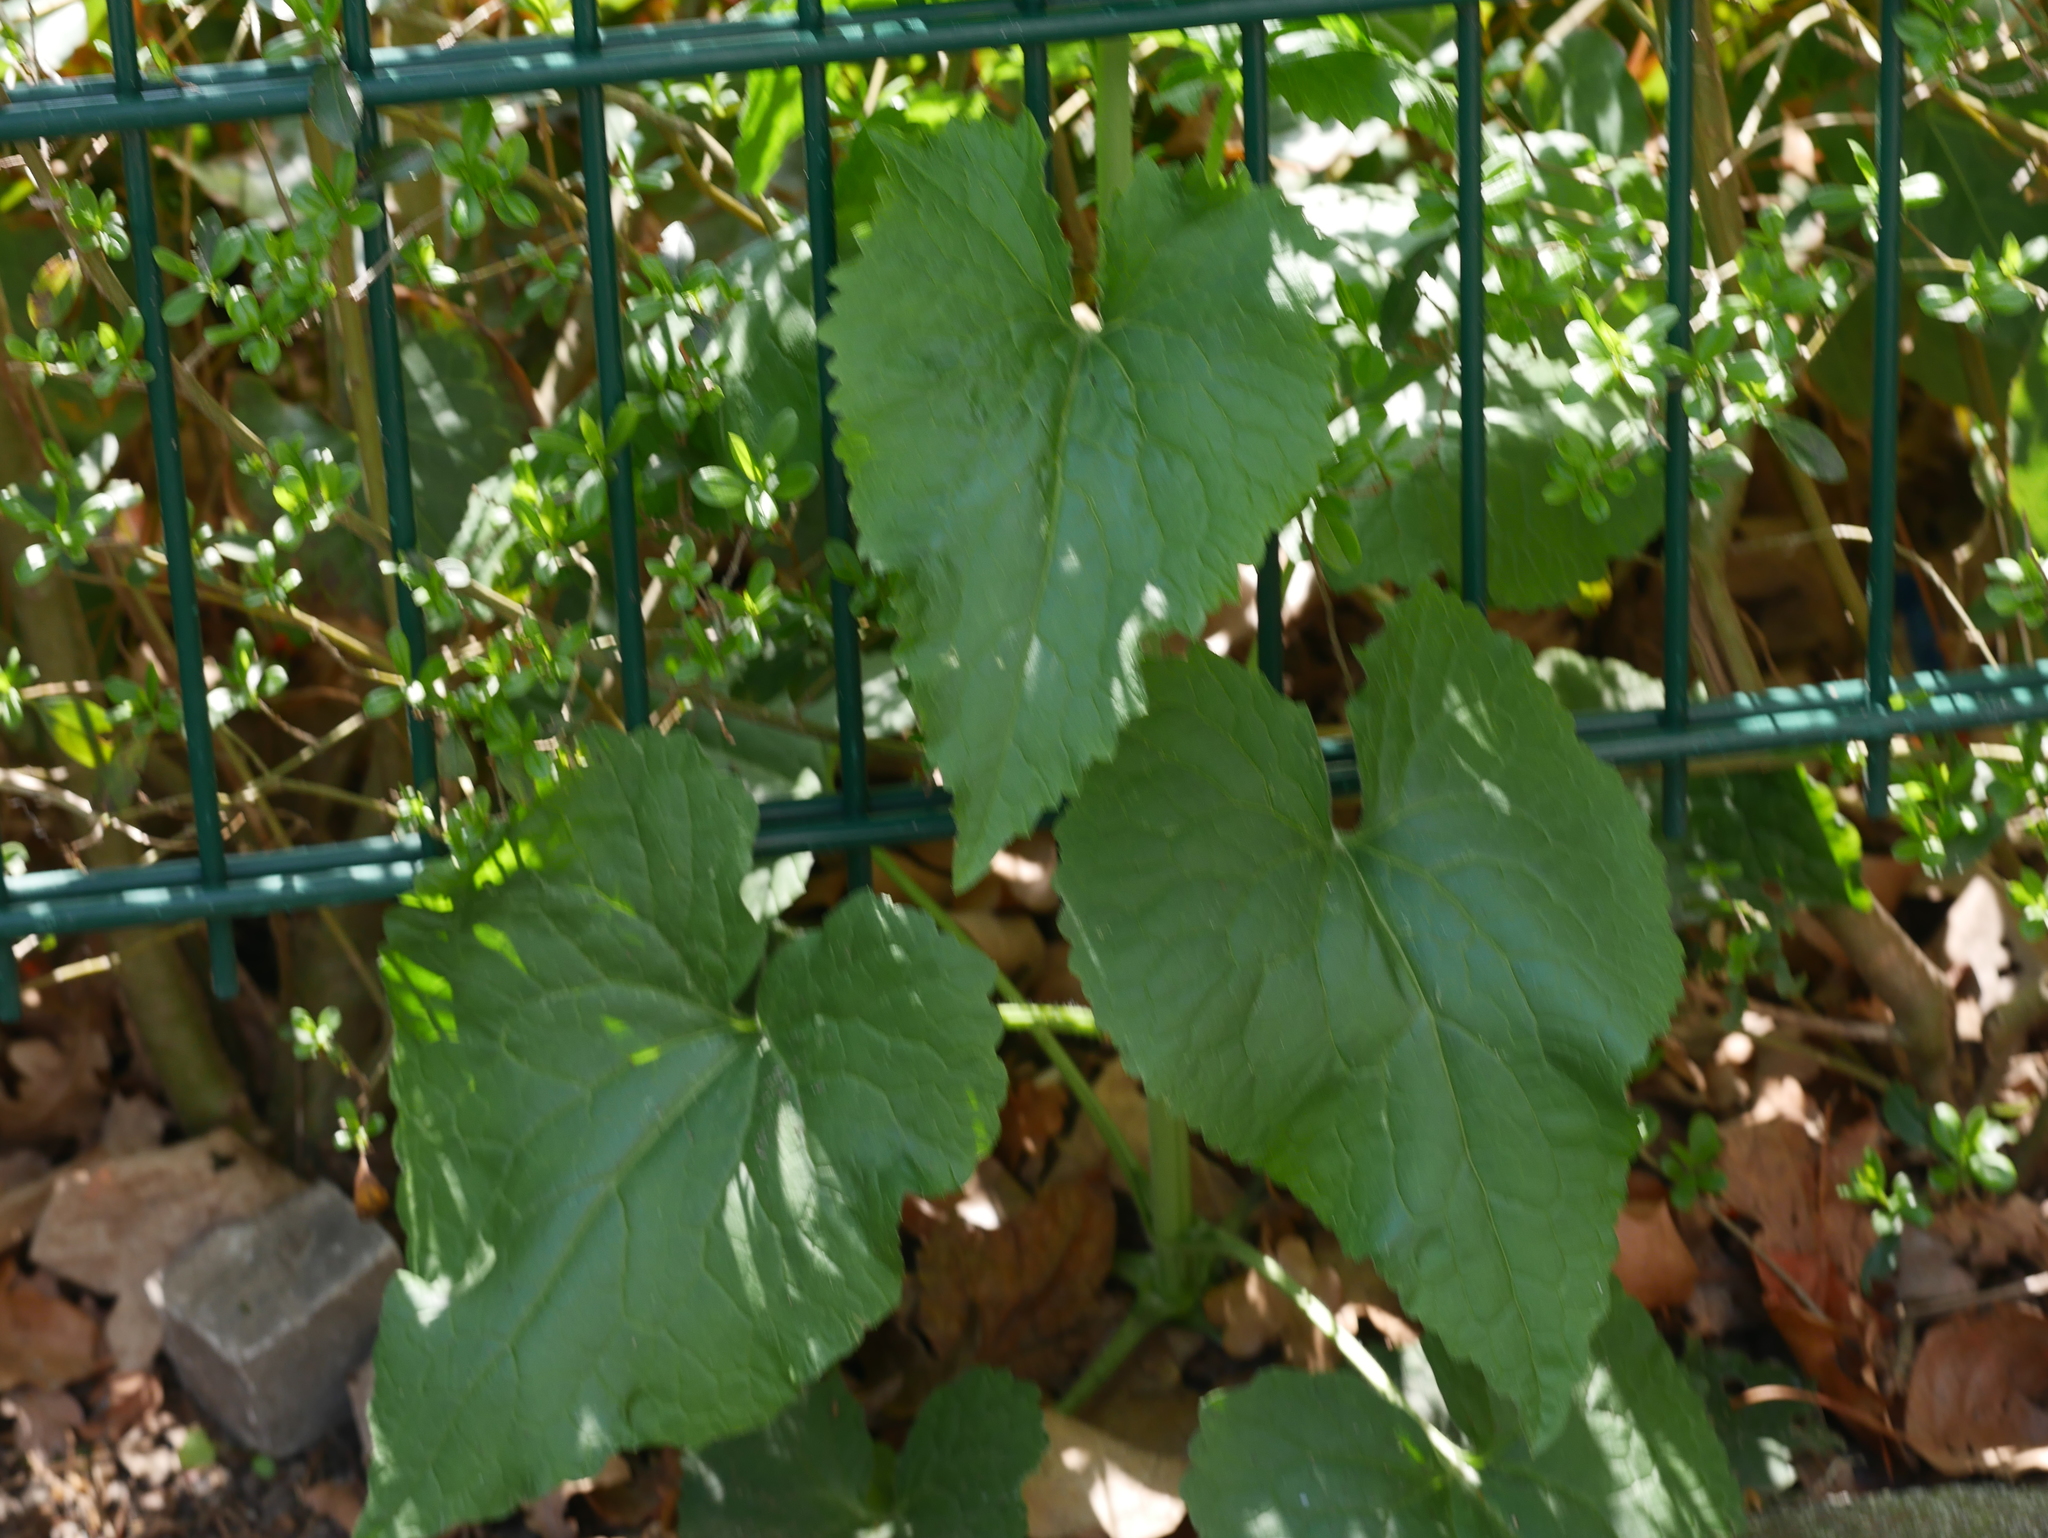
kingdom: Plantae
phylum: Tracheophyta
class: Magnoliopsida
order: Brassicales
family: Brassicaceae
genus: Lunaria
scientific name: Lunaria rediviva
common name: Perennial honesty
